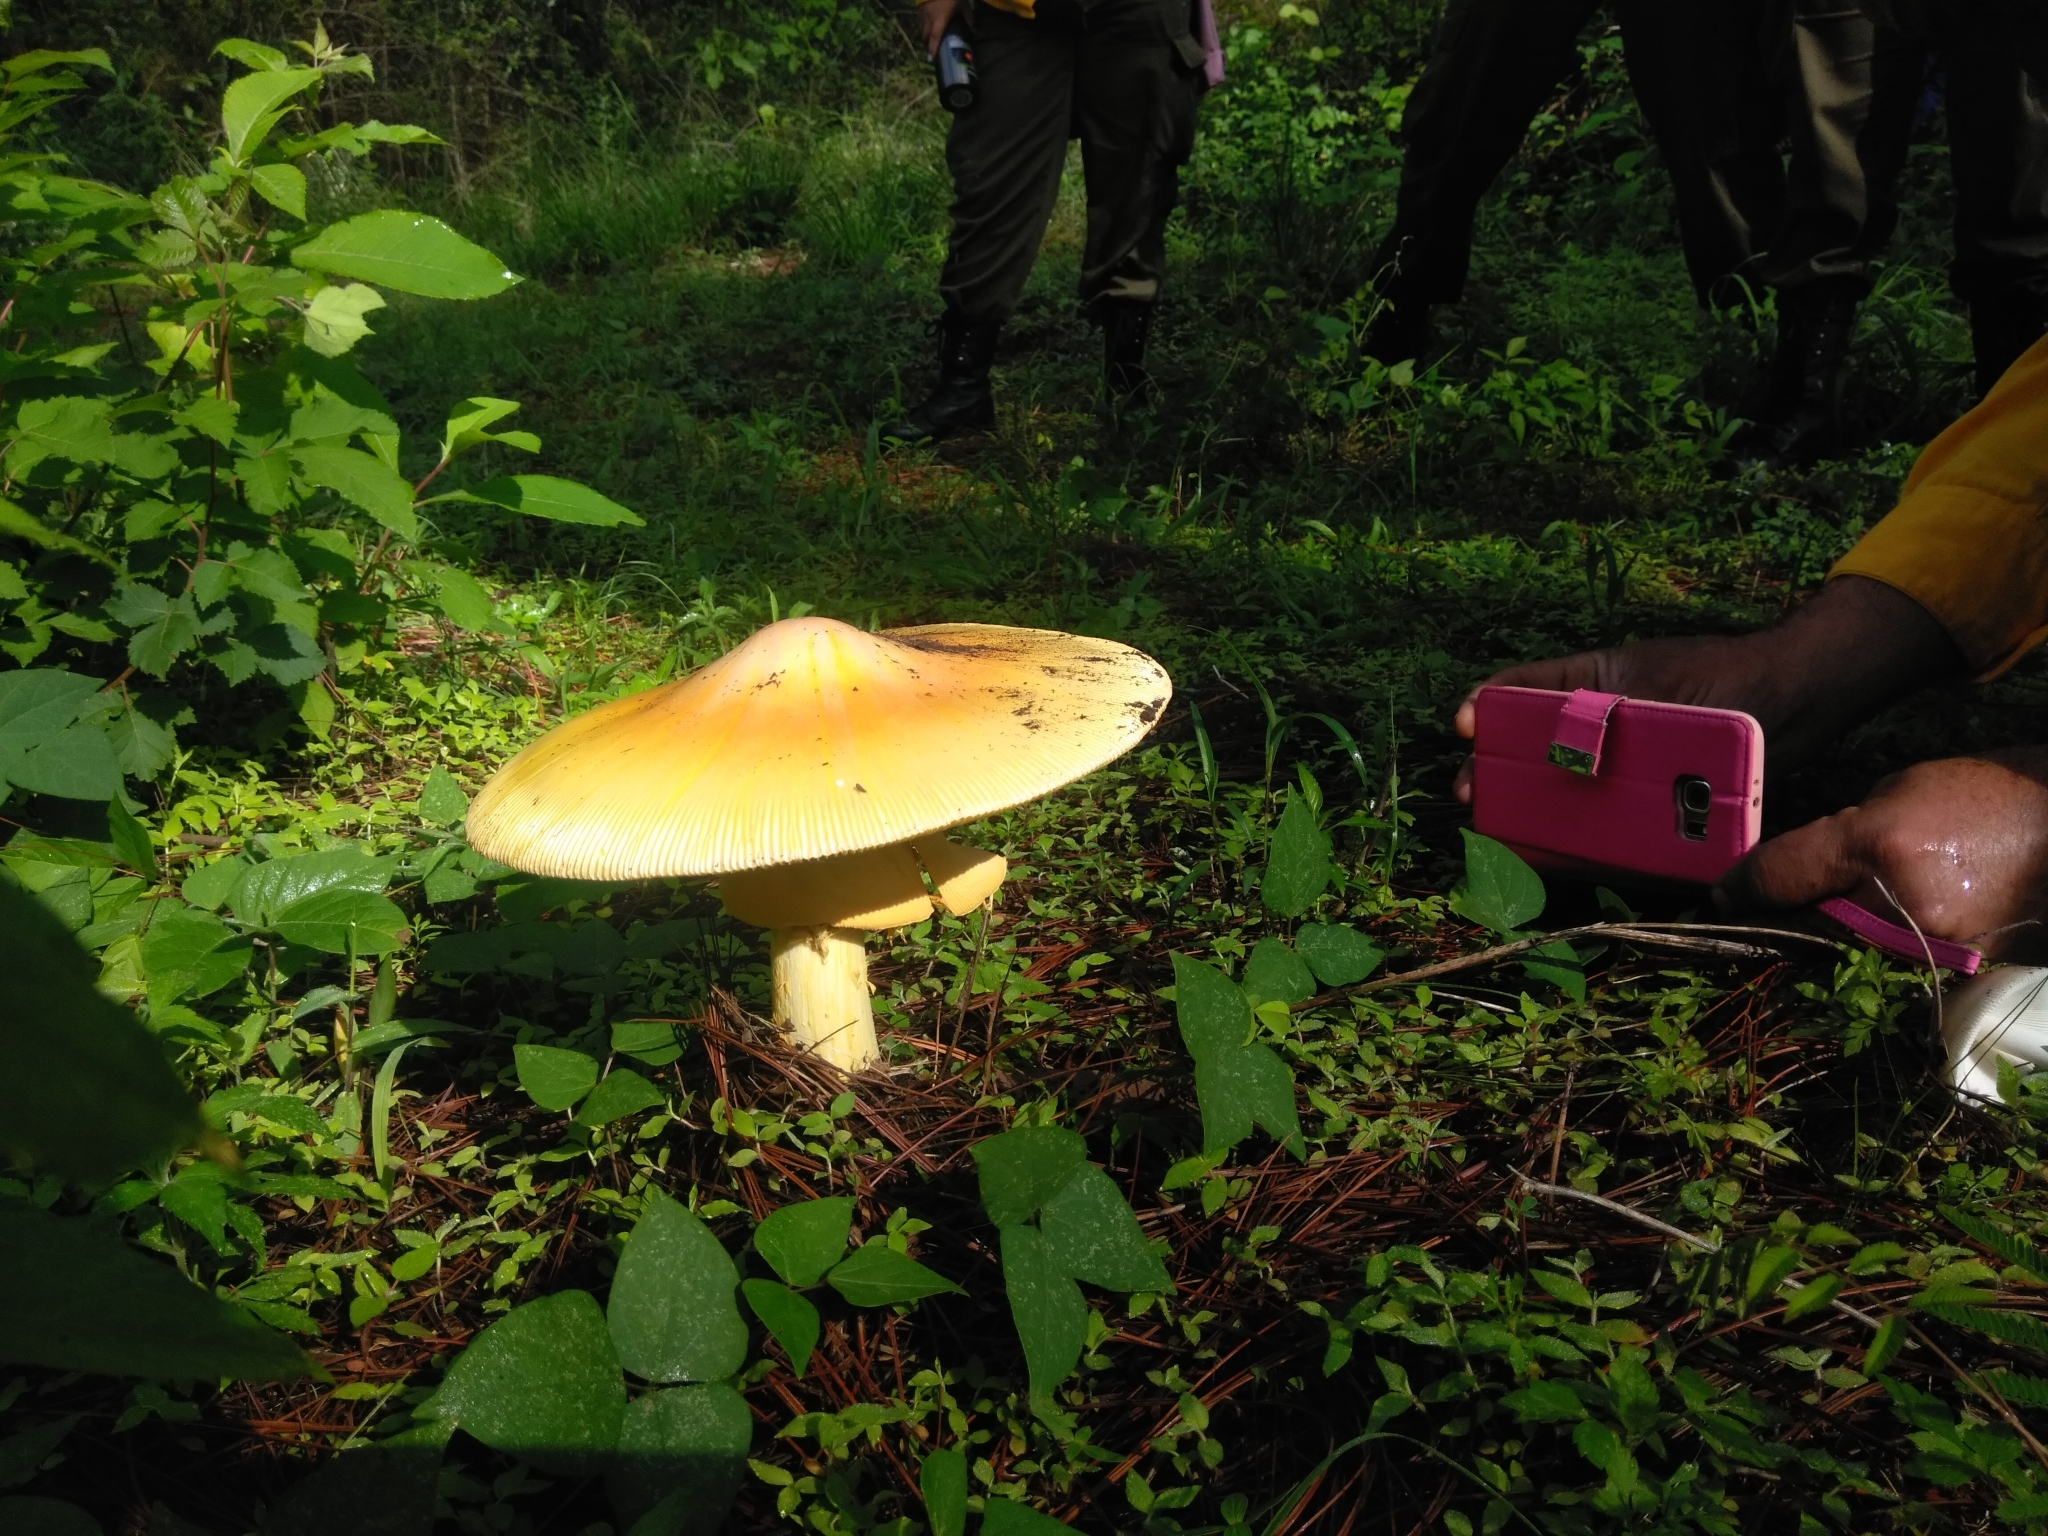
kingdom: Fungi
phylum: Basidiomycota
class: Agaricomycetes
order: Agaricales
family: Amanitaceae
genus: Amanita
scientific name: Amanita basii
